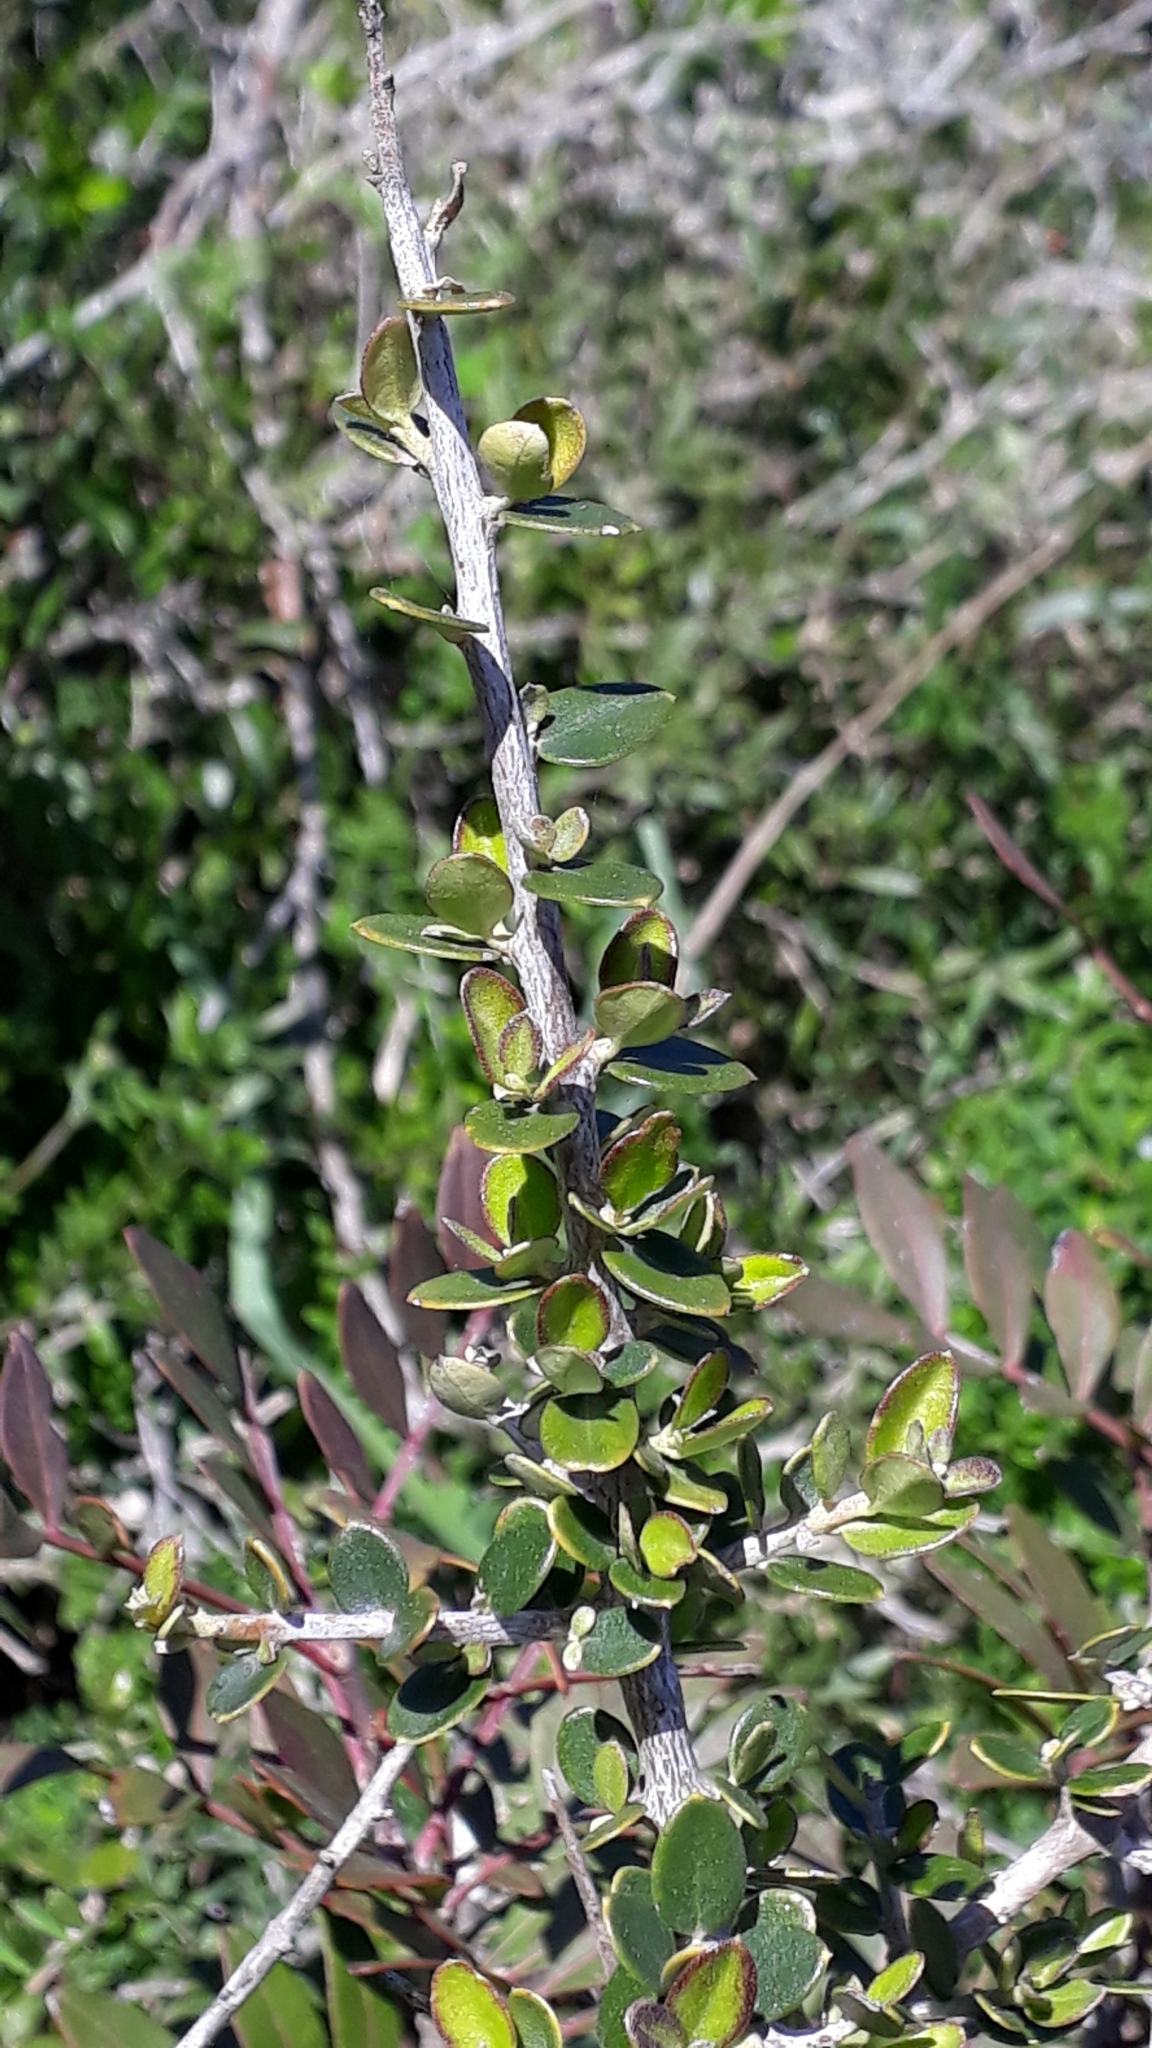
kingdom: Plantae
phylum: Tracheophyta
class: Magnoliopsida
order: Lamiales
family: Oleaceae
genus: Olea
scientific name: Olea europaea
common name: Olive
